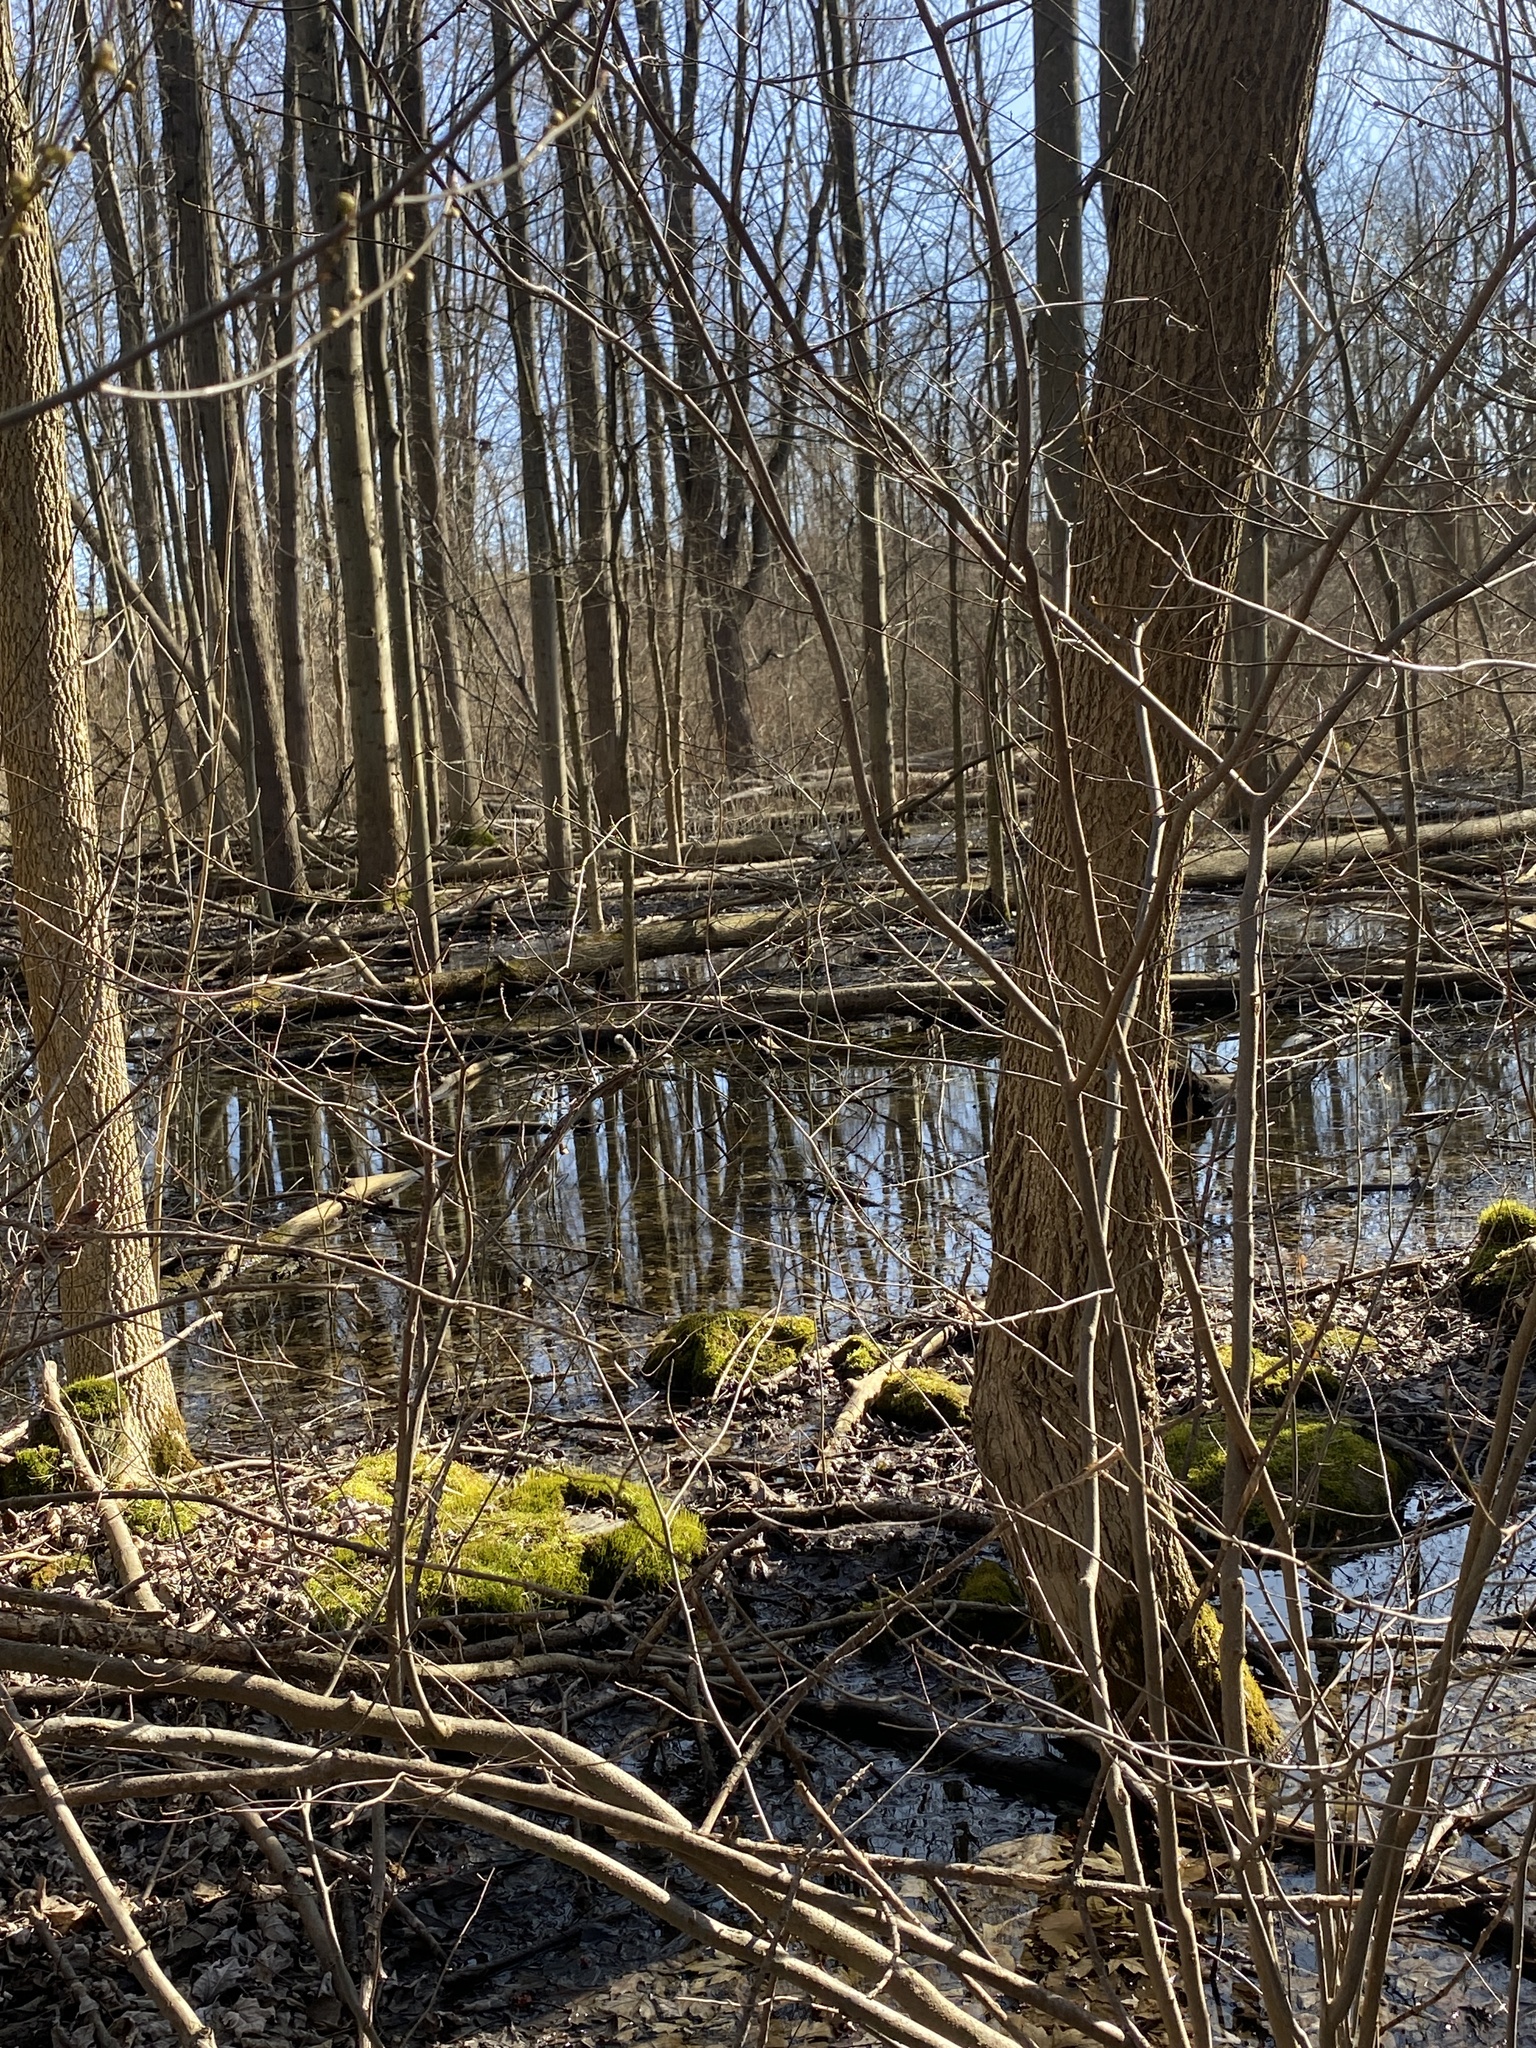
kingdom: Plantae
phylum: Bryophyta
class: Bryopsida
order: Hypnales
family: Climaciaceae
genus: Climacium
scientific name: Climacium americanum
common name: American tree moss
